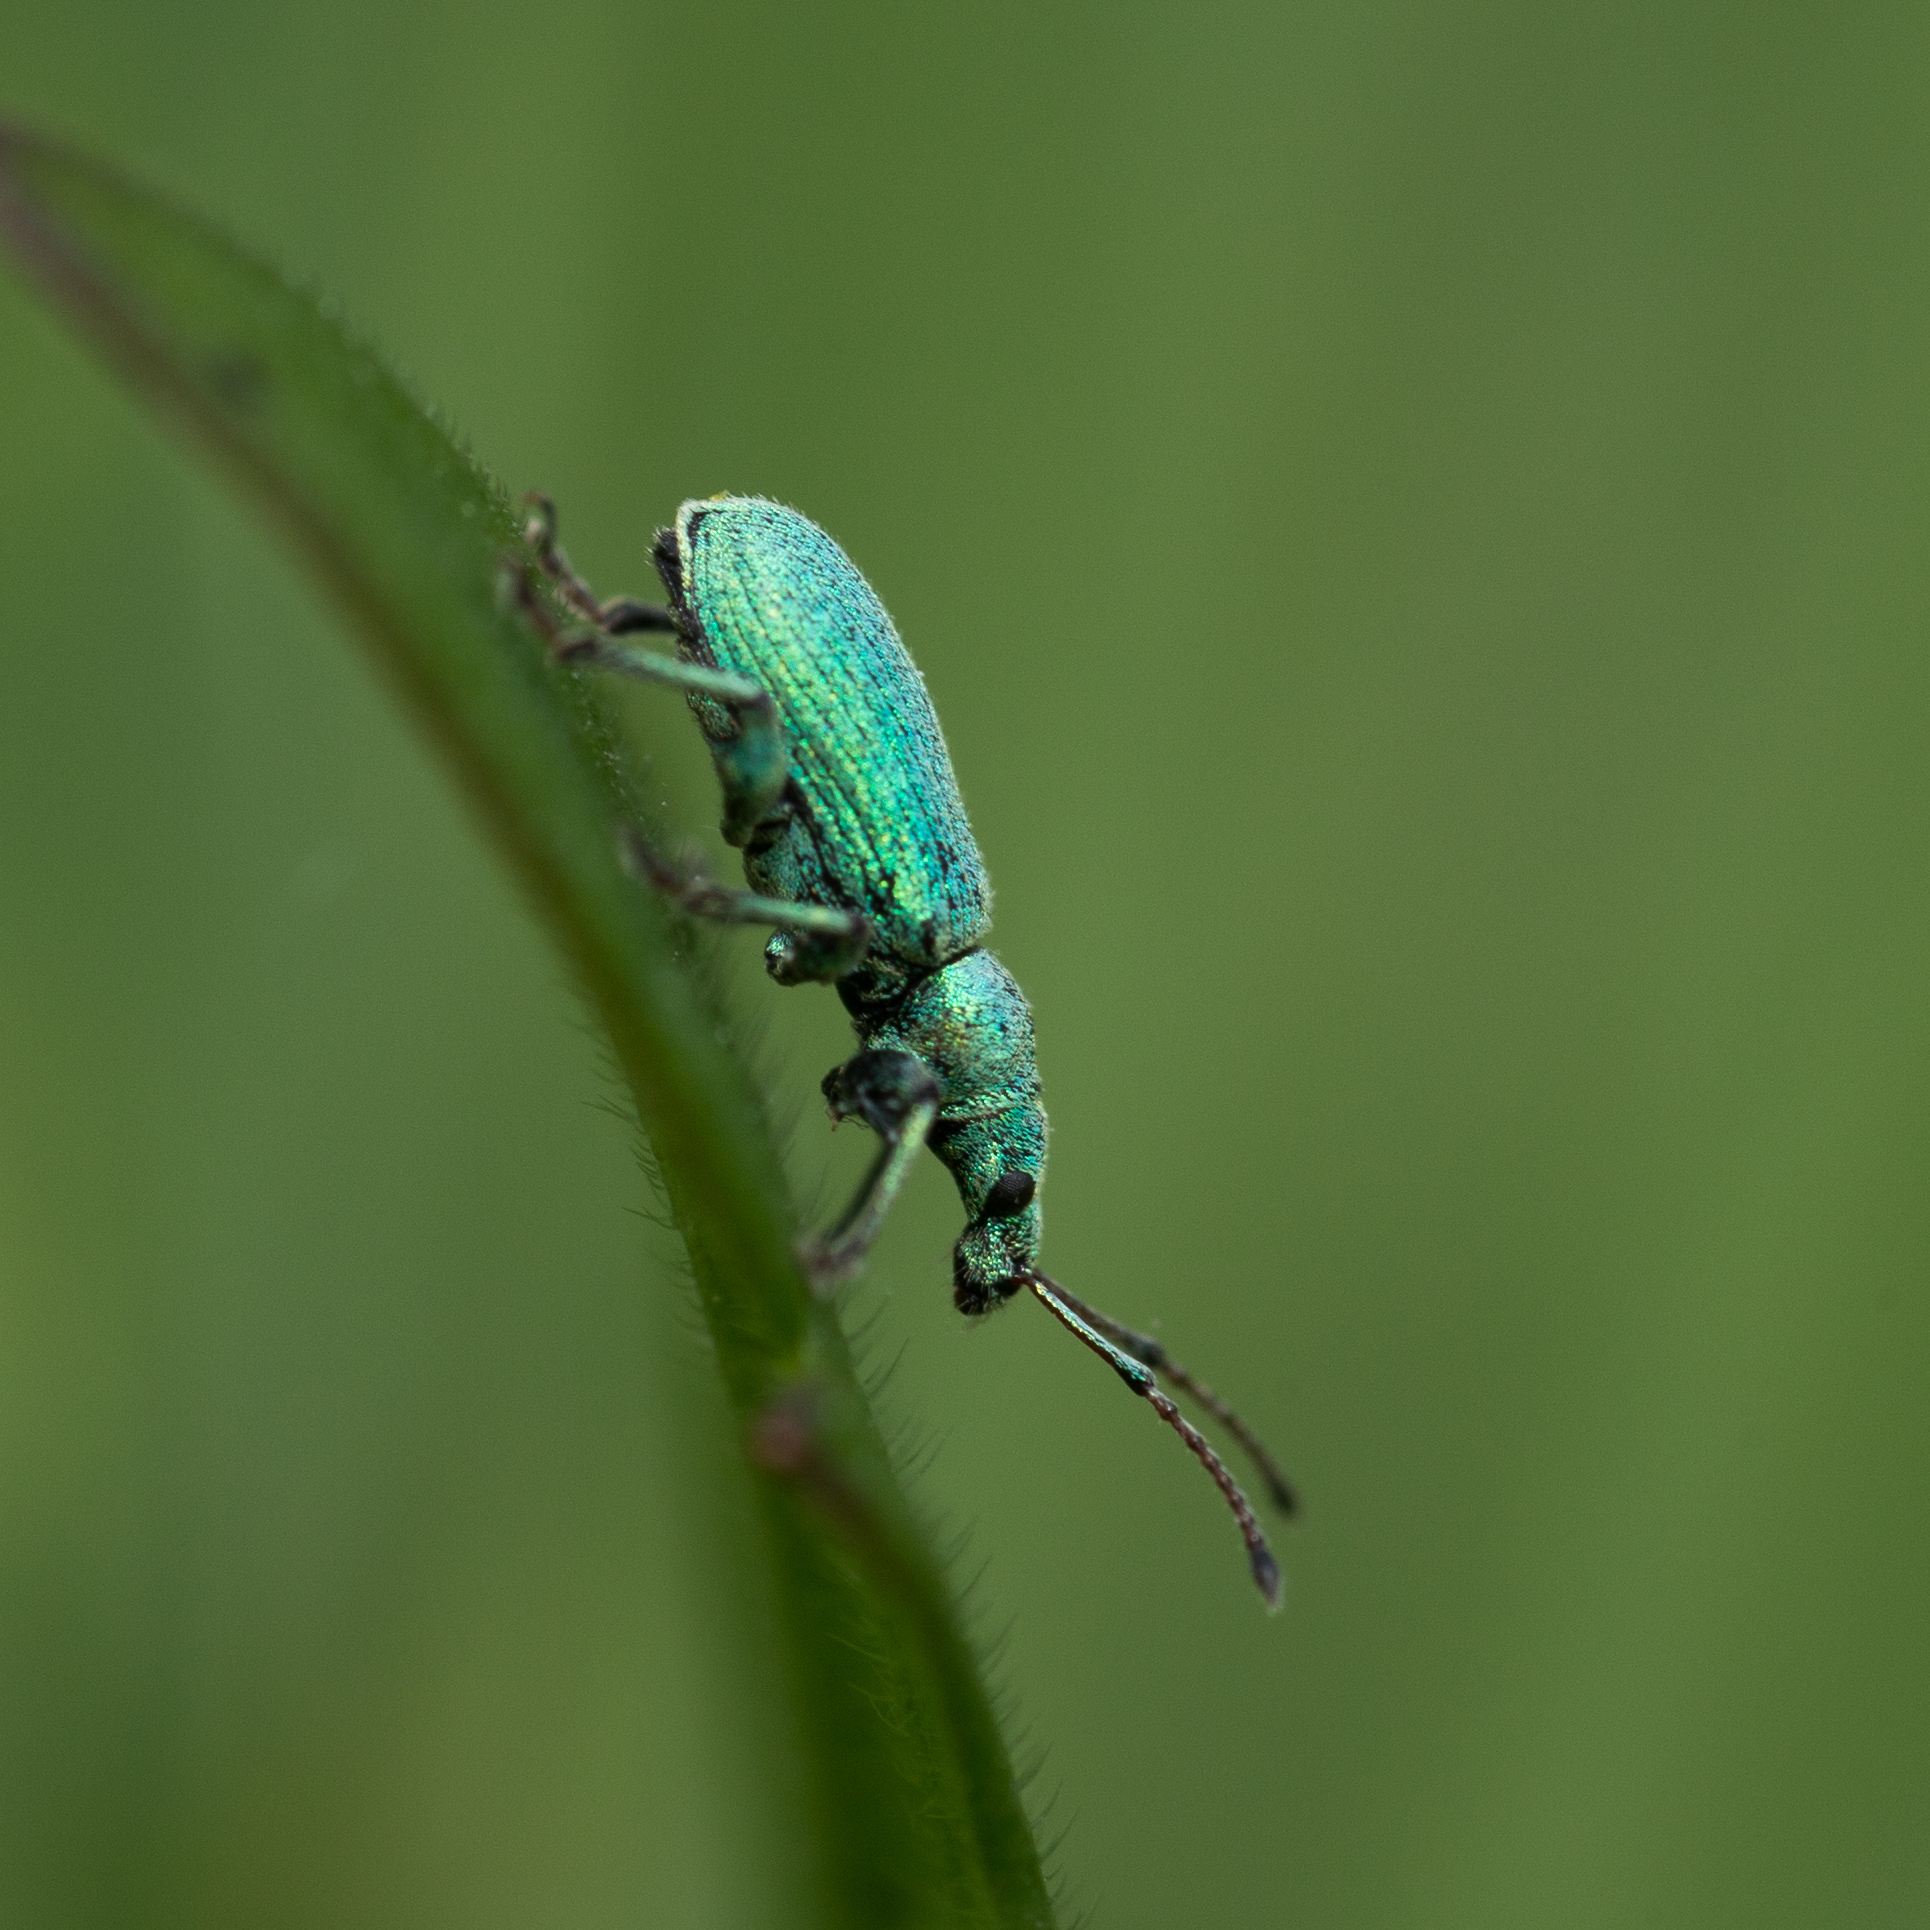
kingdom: Animalia
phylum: Arthropoda
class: Insecta
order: Coleoptera
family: Curculionidae
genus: Phyllobius
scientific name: Phyllobius maculicornis
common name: Green leaf weevil
